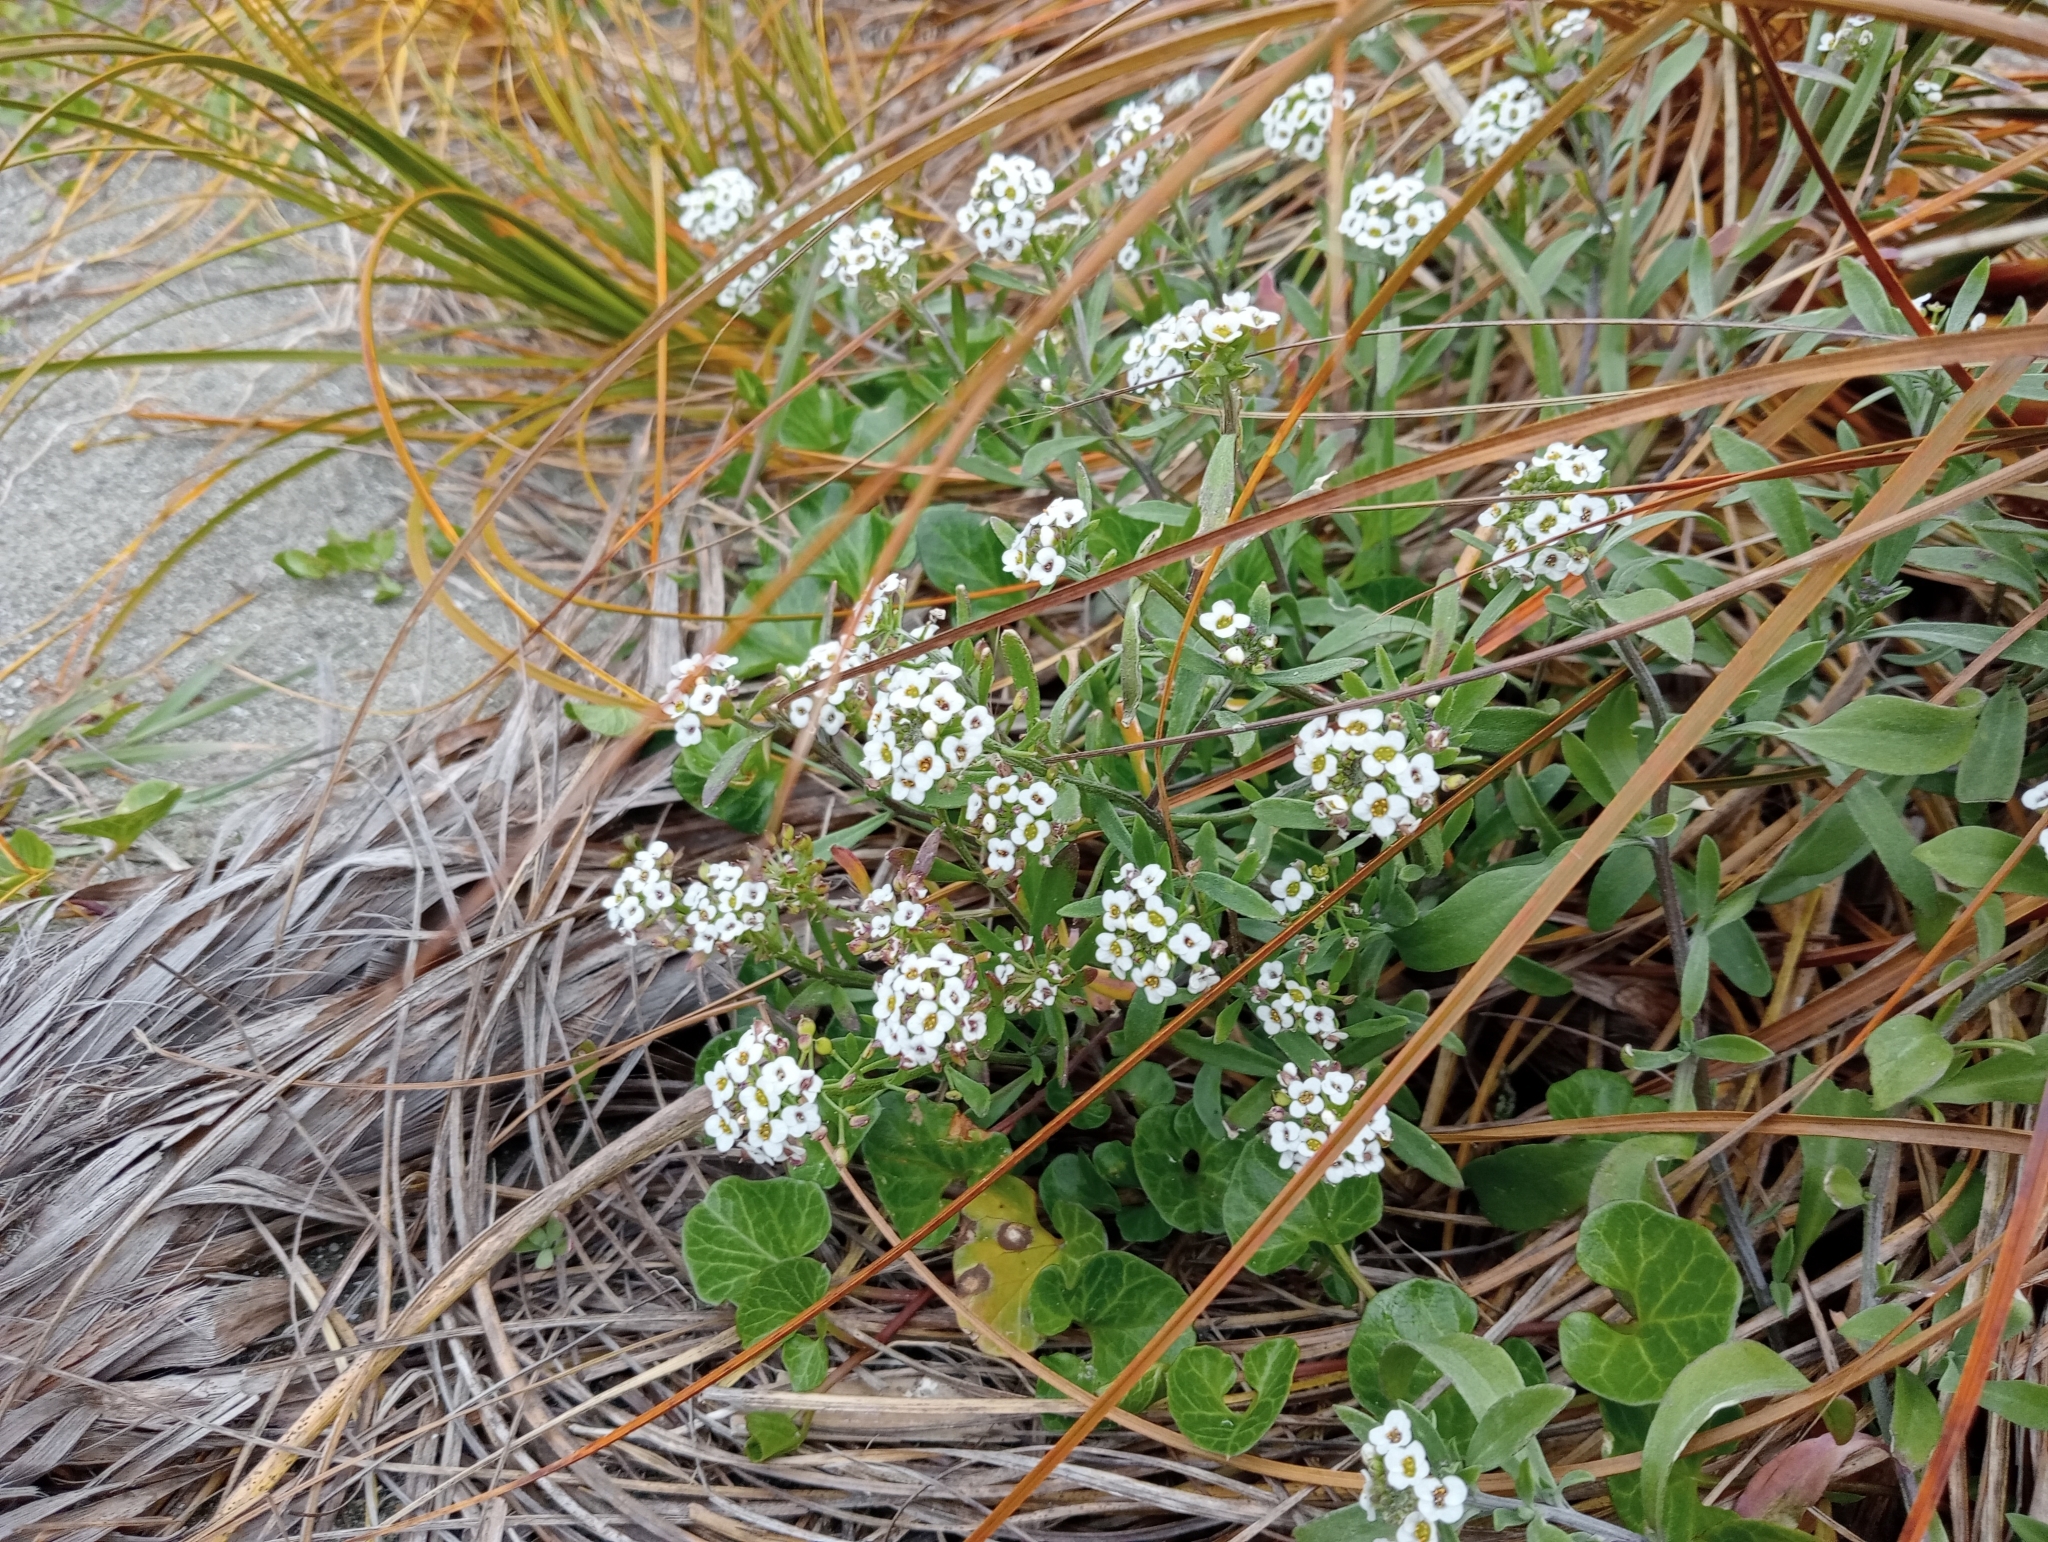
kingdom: Plantae
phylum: Tracheophyta
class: Magnoliopsida
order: Brassicales
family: Brassicaceae
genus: Lobularia
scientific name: Lobularia maritima
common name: Sweet alison
